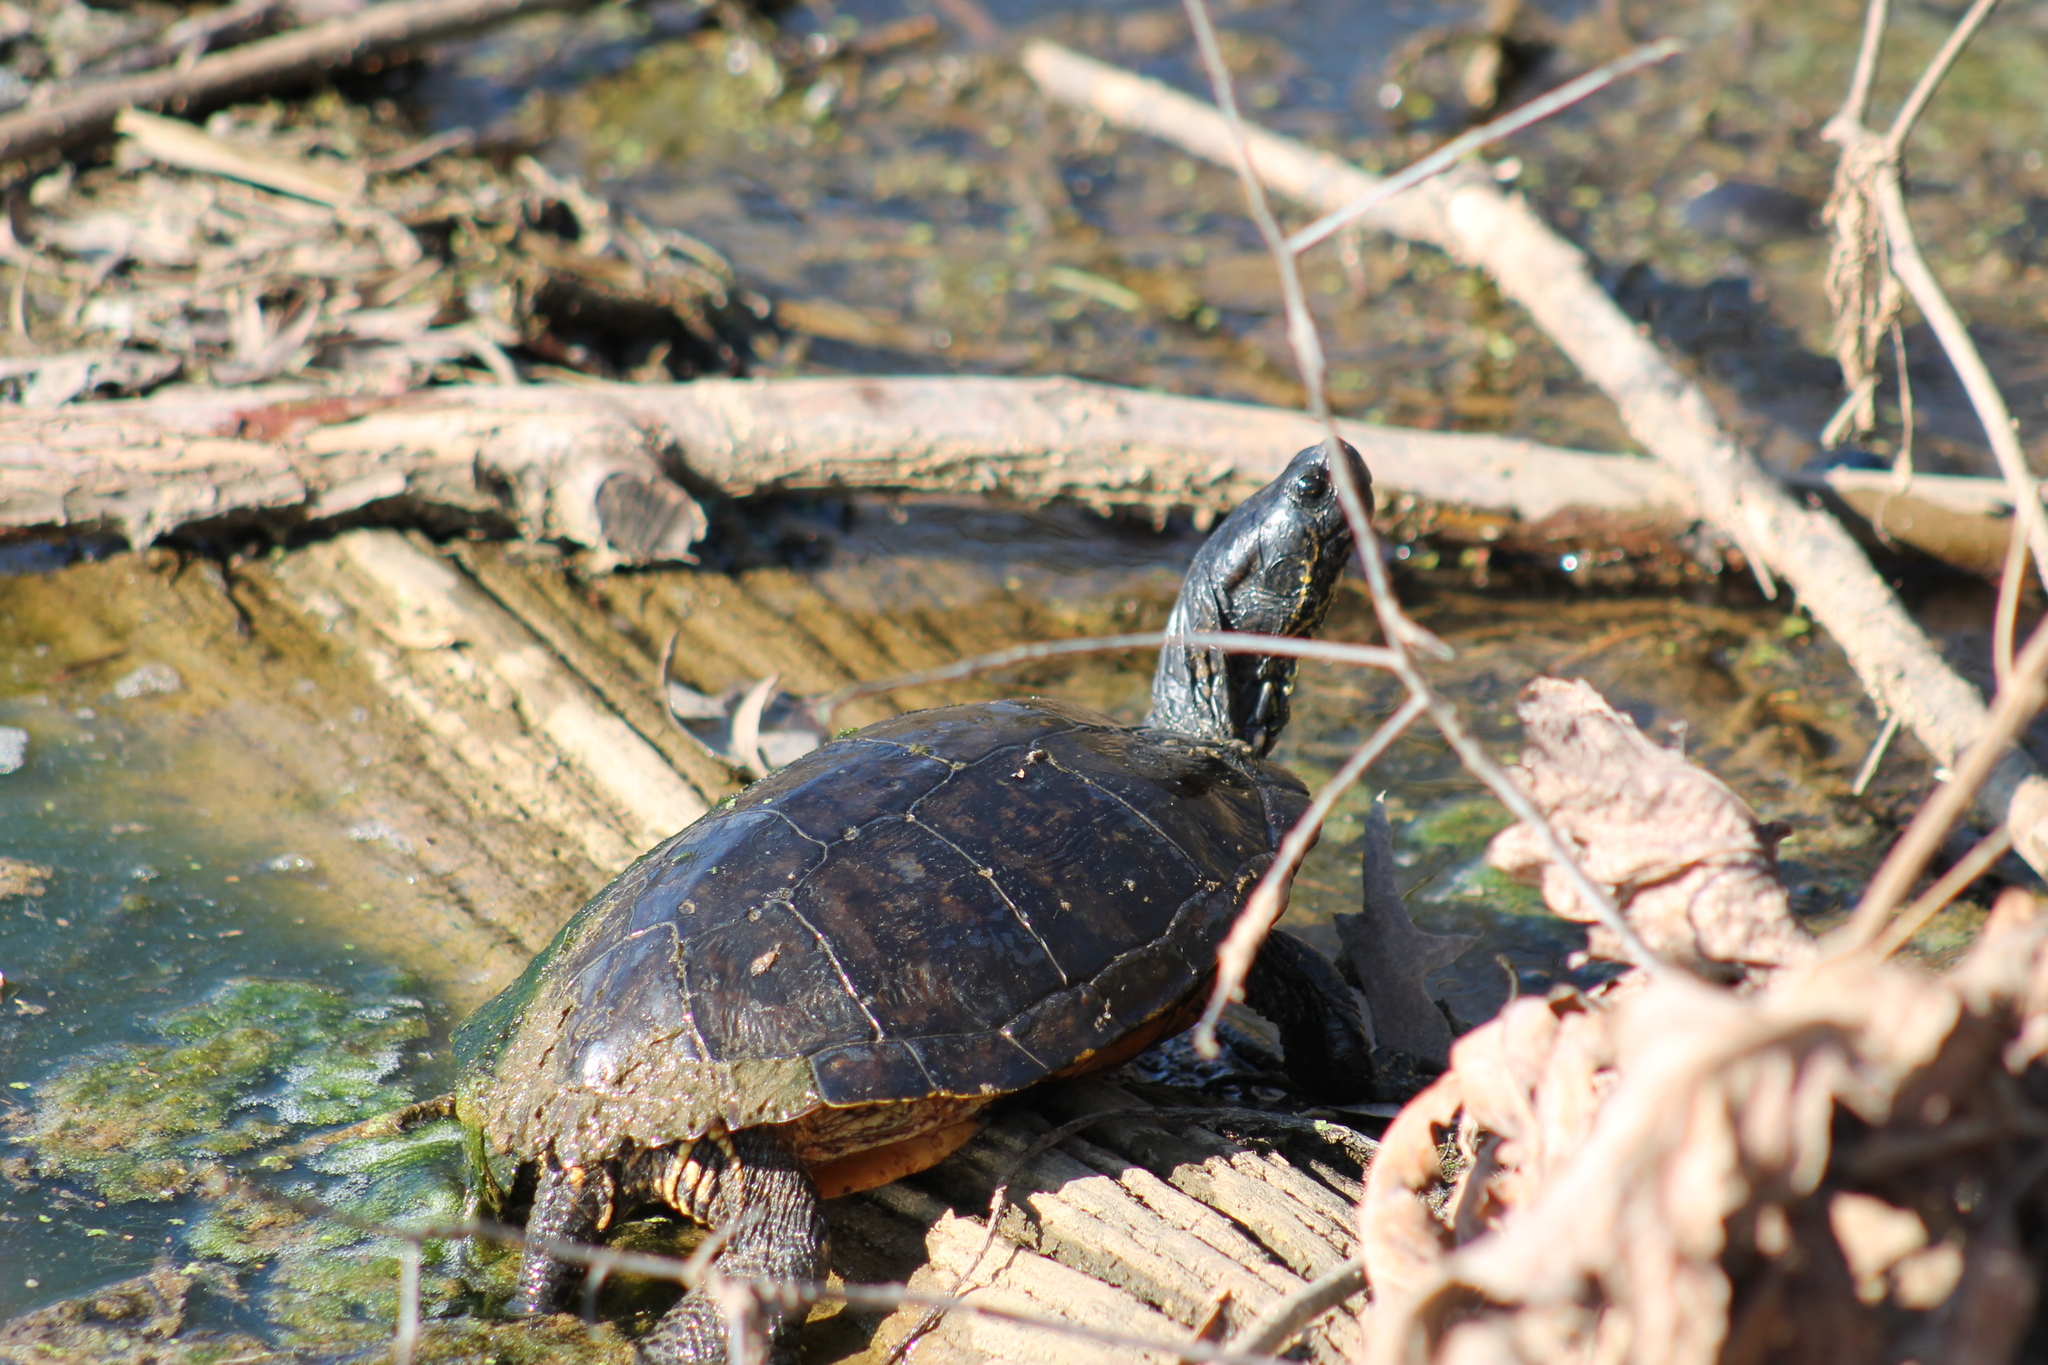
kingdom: Animalia
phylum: Chordata
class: Testudines
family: Emydidae
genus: Trachemys
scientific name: Trachemys scripta
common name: Slider
